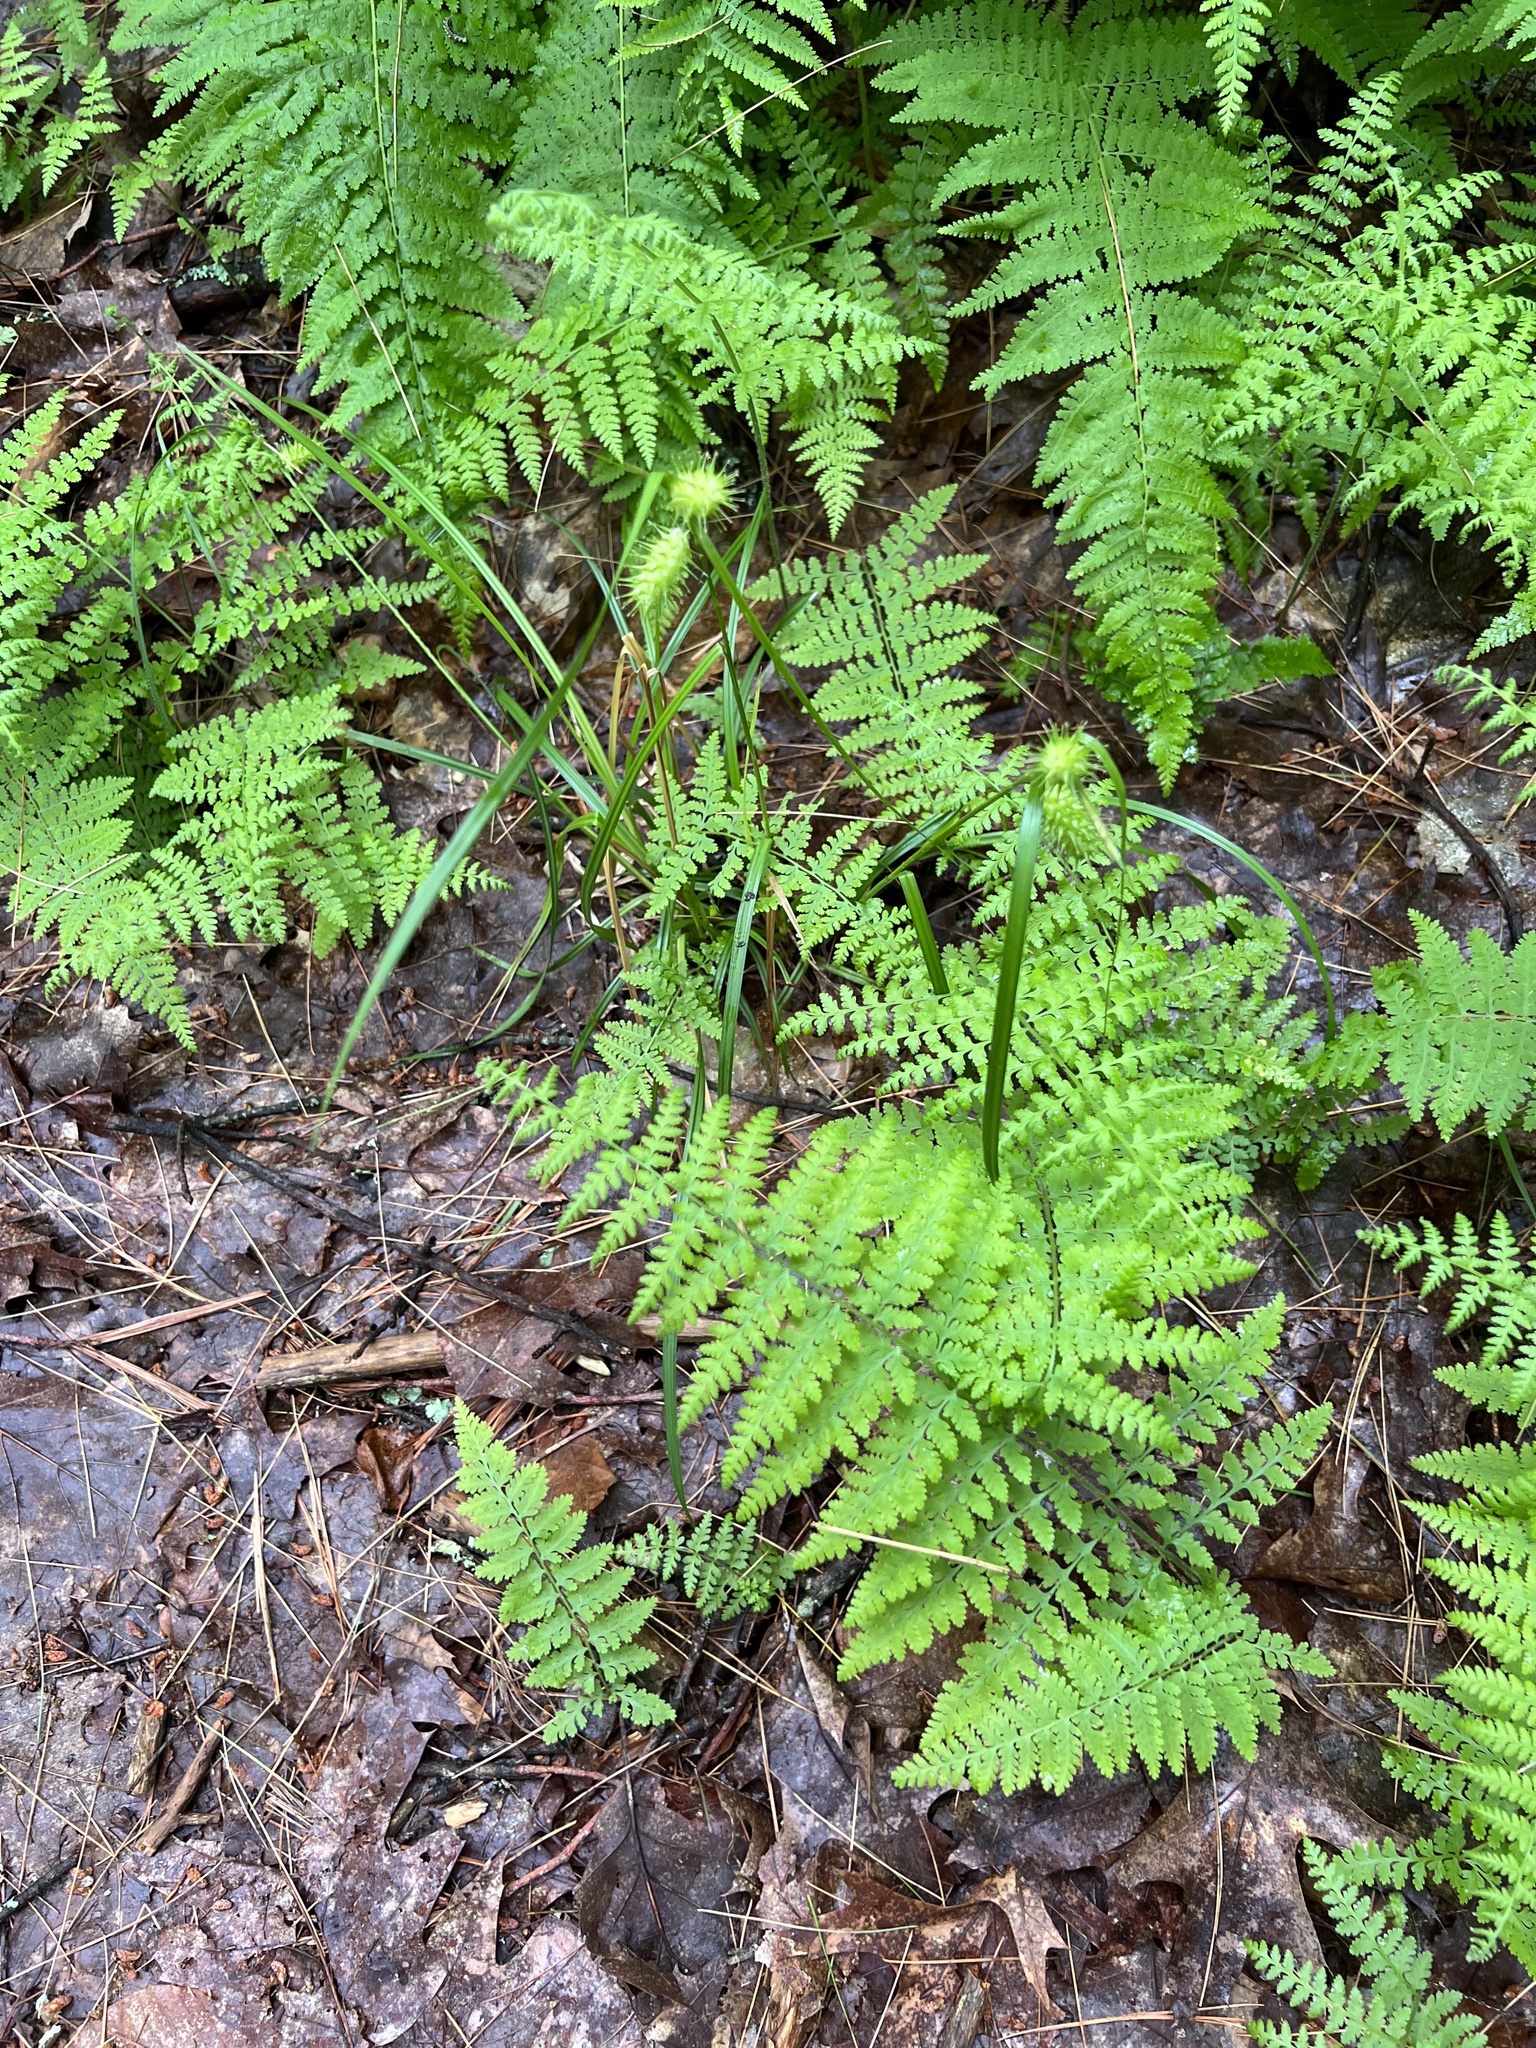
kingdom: Plantae
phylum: Tracheophyta
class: Liliopsida
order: Poales
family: Cyperaceae
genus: Carex
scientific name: Carex lurida
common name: Sallow sedge
